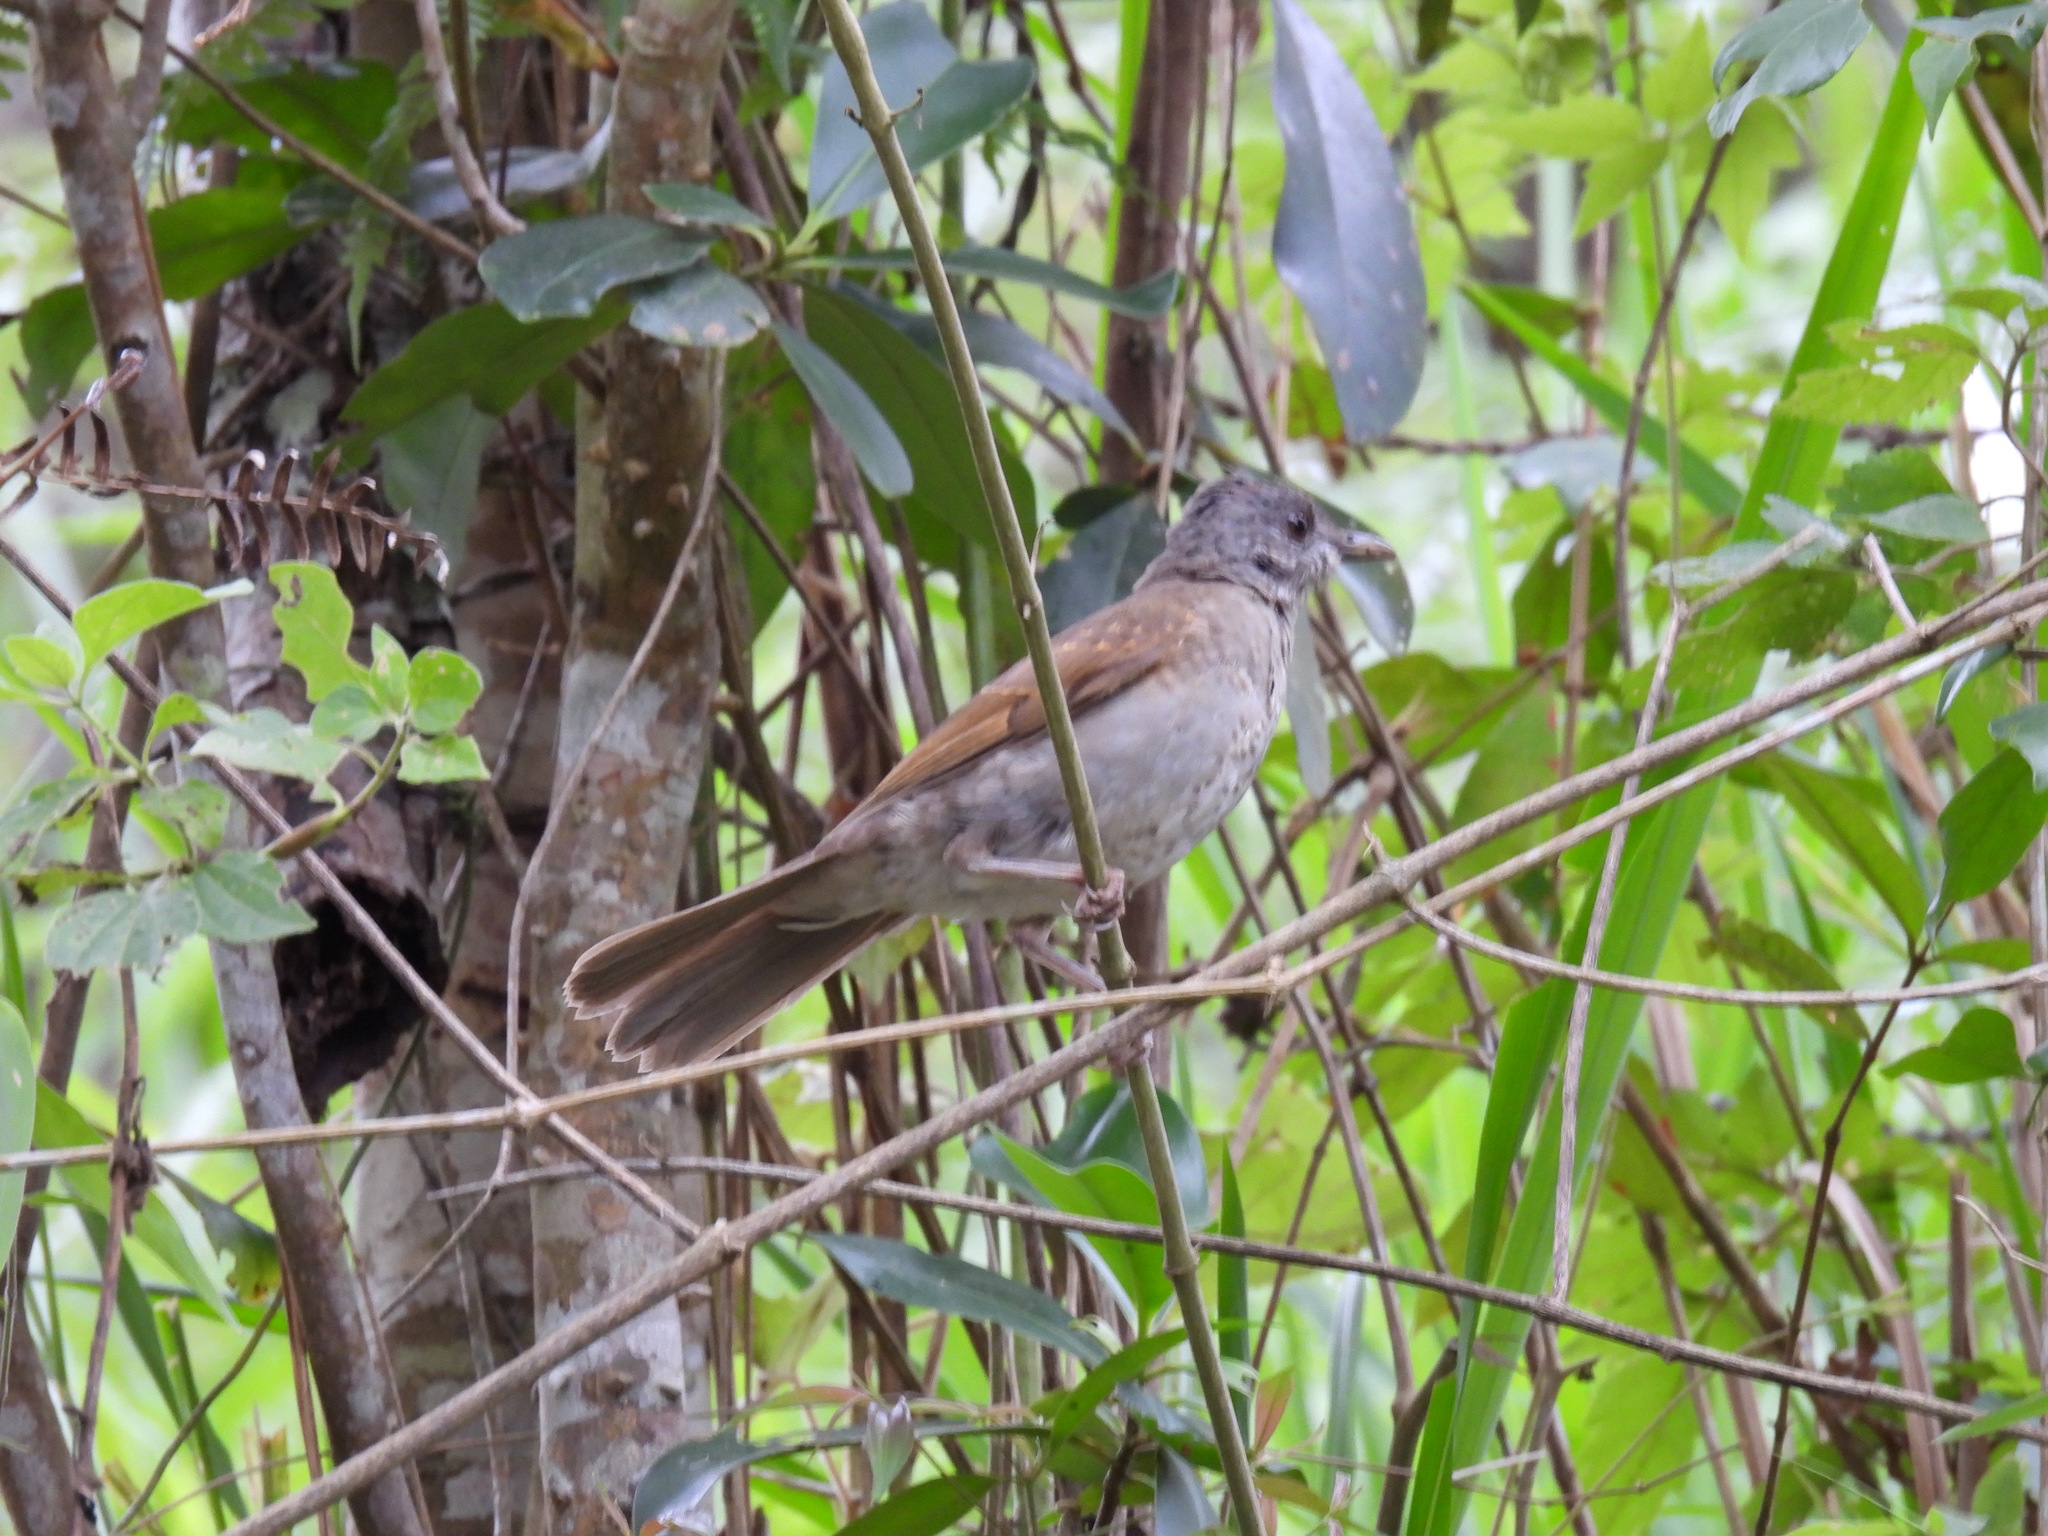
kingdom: Animalia
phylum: Chordata
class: Aves
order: Passeriformes
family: Turdidae
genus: Turdus
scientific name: Turdus leucomelas
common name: Pale-breasted thrush
